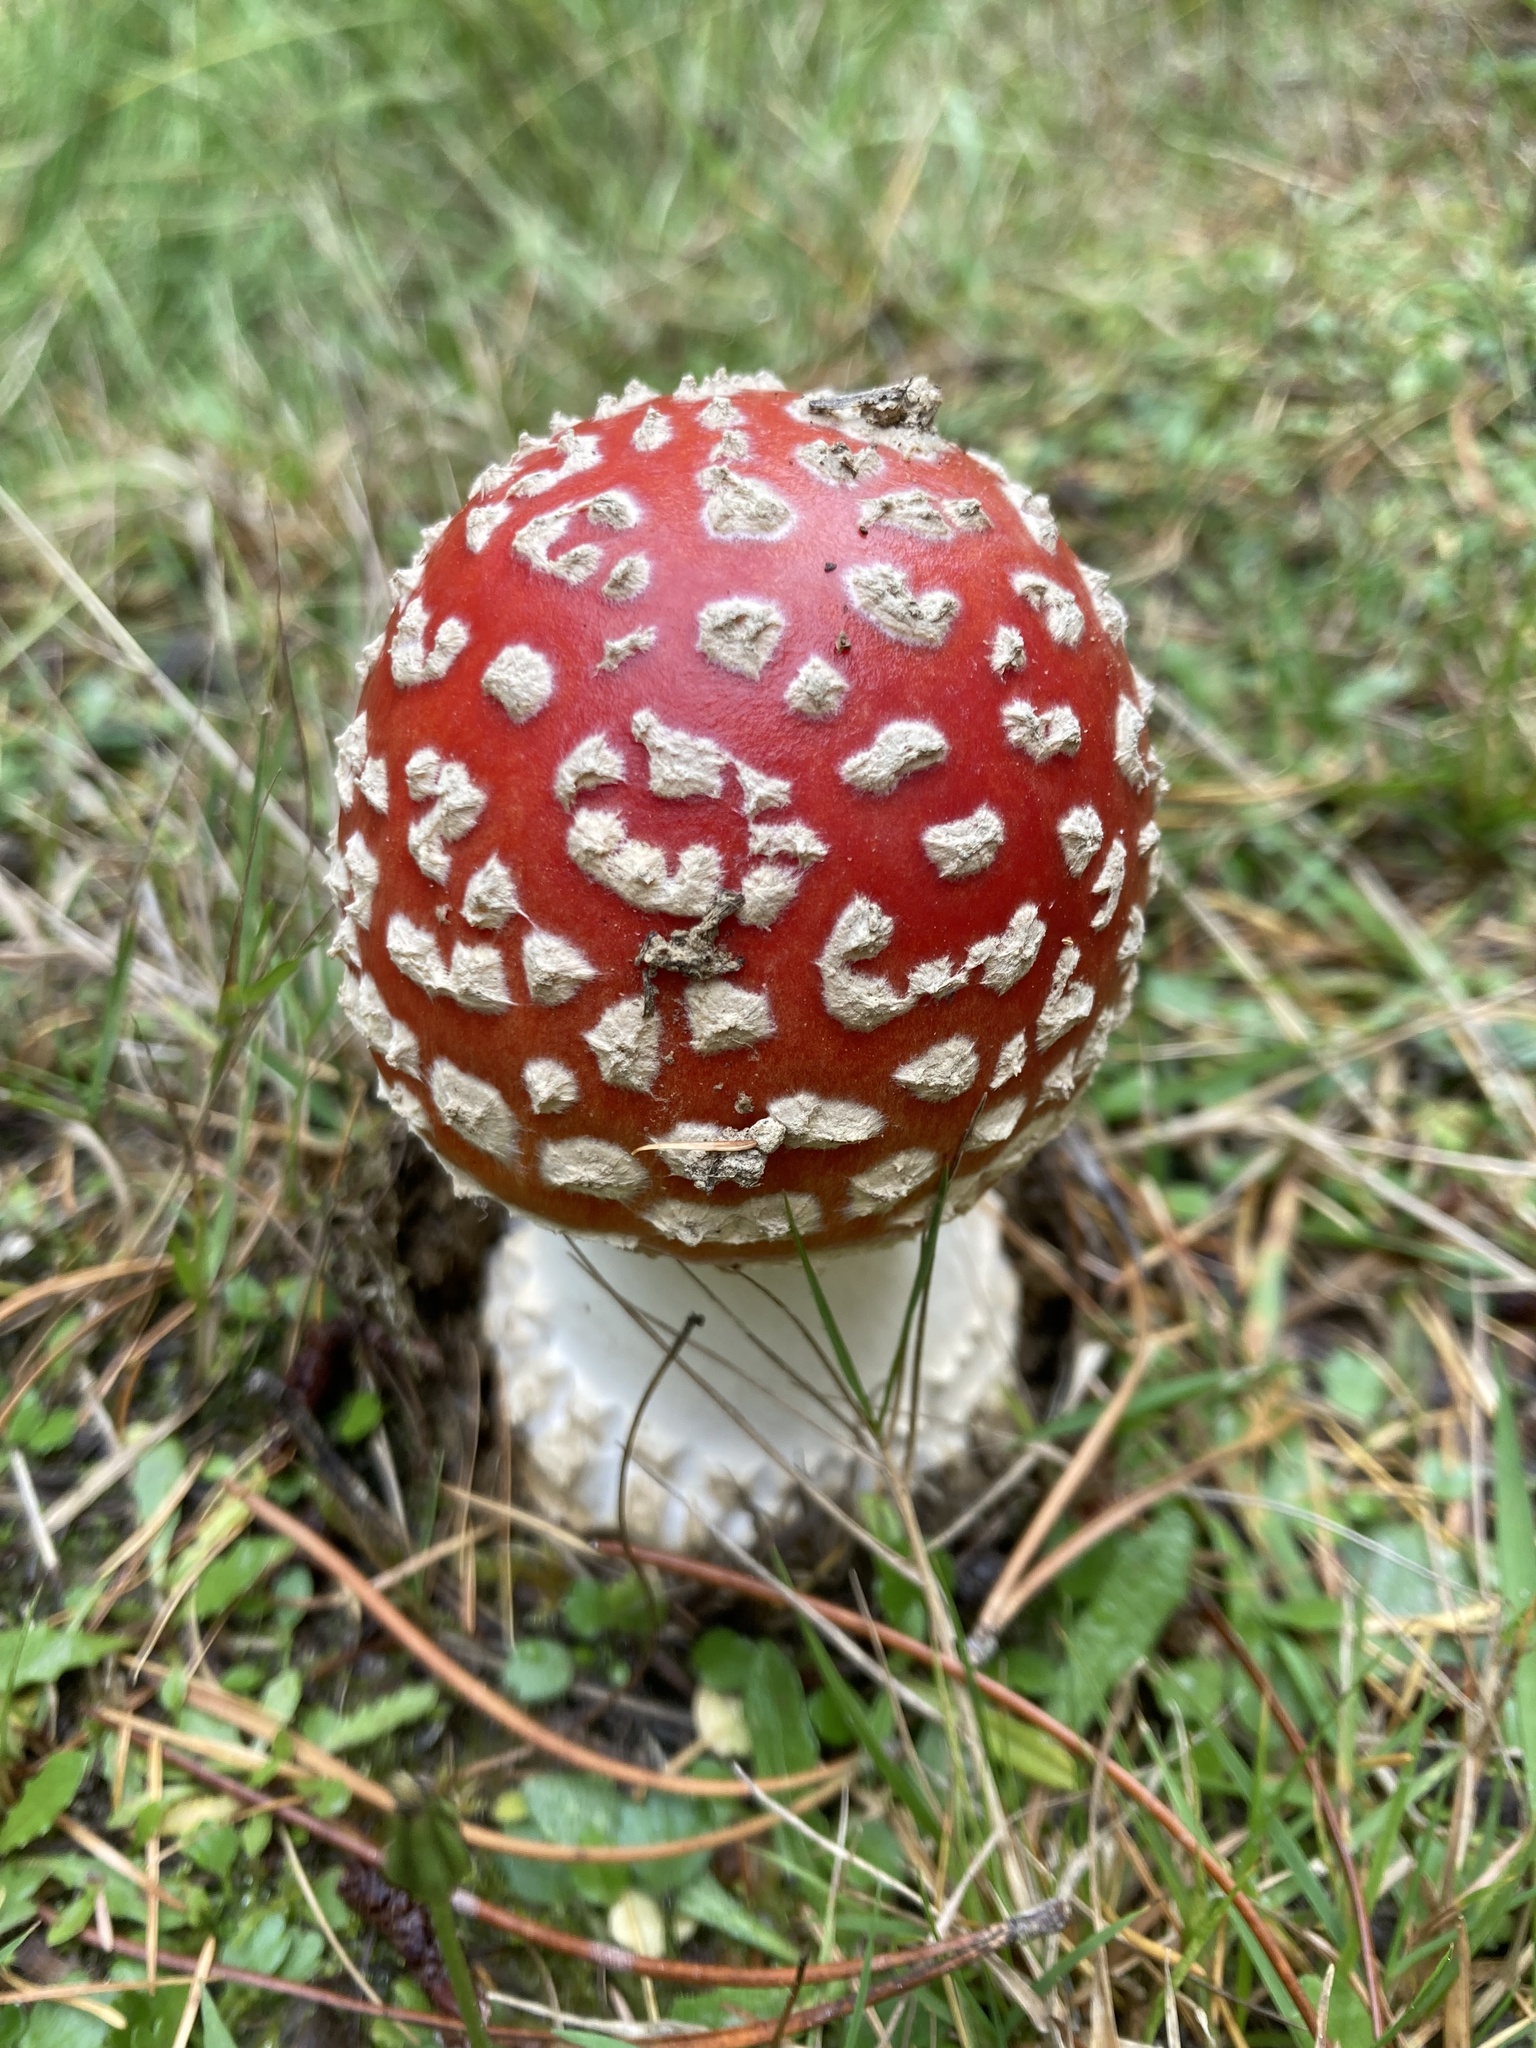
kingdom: Fungi
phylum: Basidiomycota
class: Agaricomycetes
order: Agaricales
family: Amanitaceae
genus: Amanita
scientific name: Amanita muscaria
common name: Fly agaric
